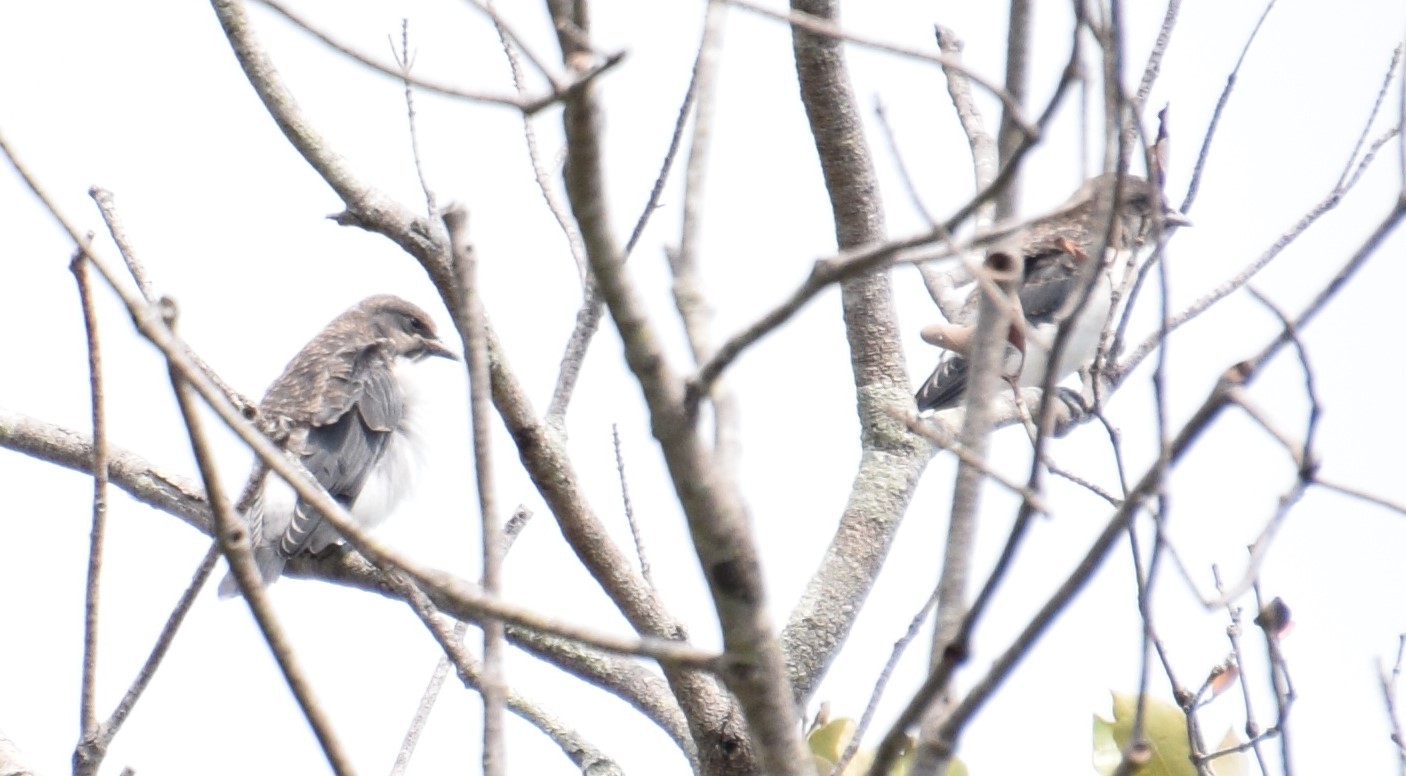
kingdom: Animalia
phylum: Chordata
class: Aves
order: Passeriformes
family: Artamidae
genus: Artamus
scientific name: Artamus leucoryn
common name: White-breasted woodswallow
